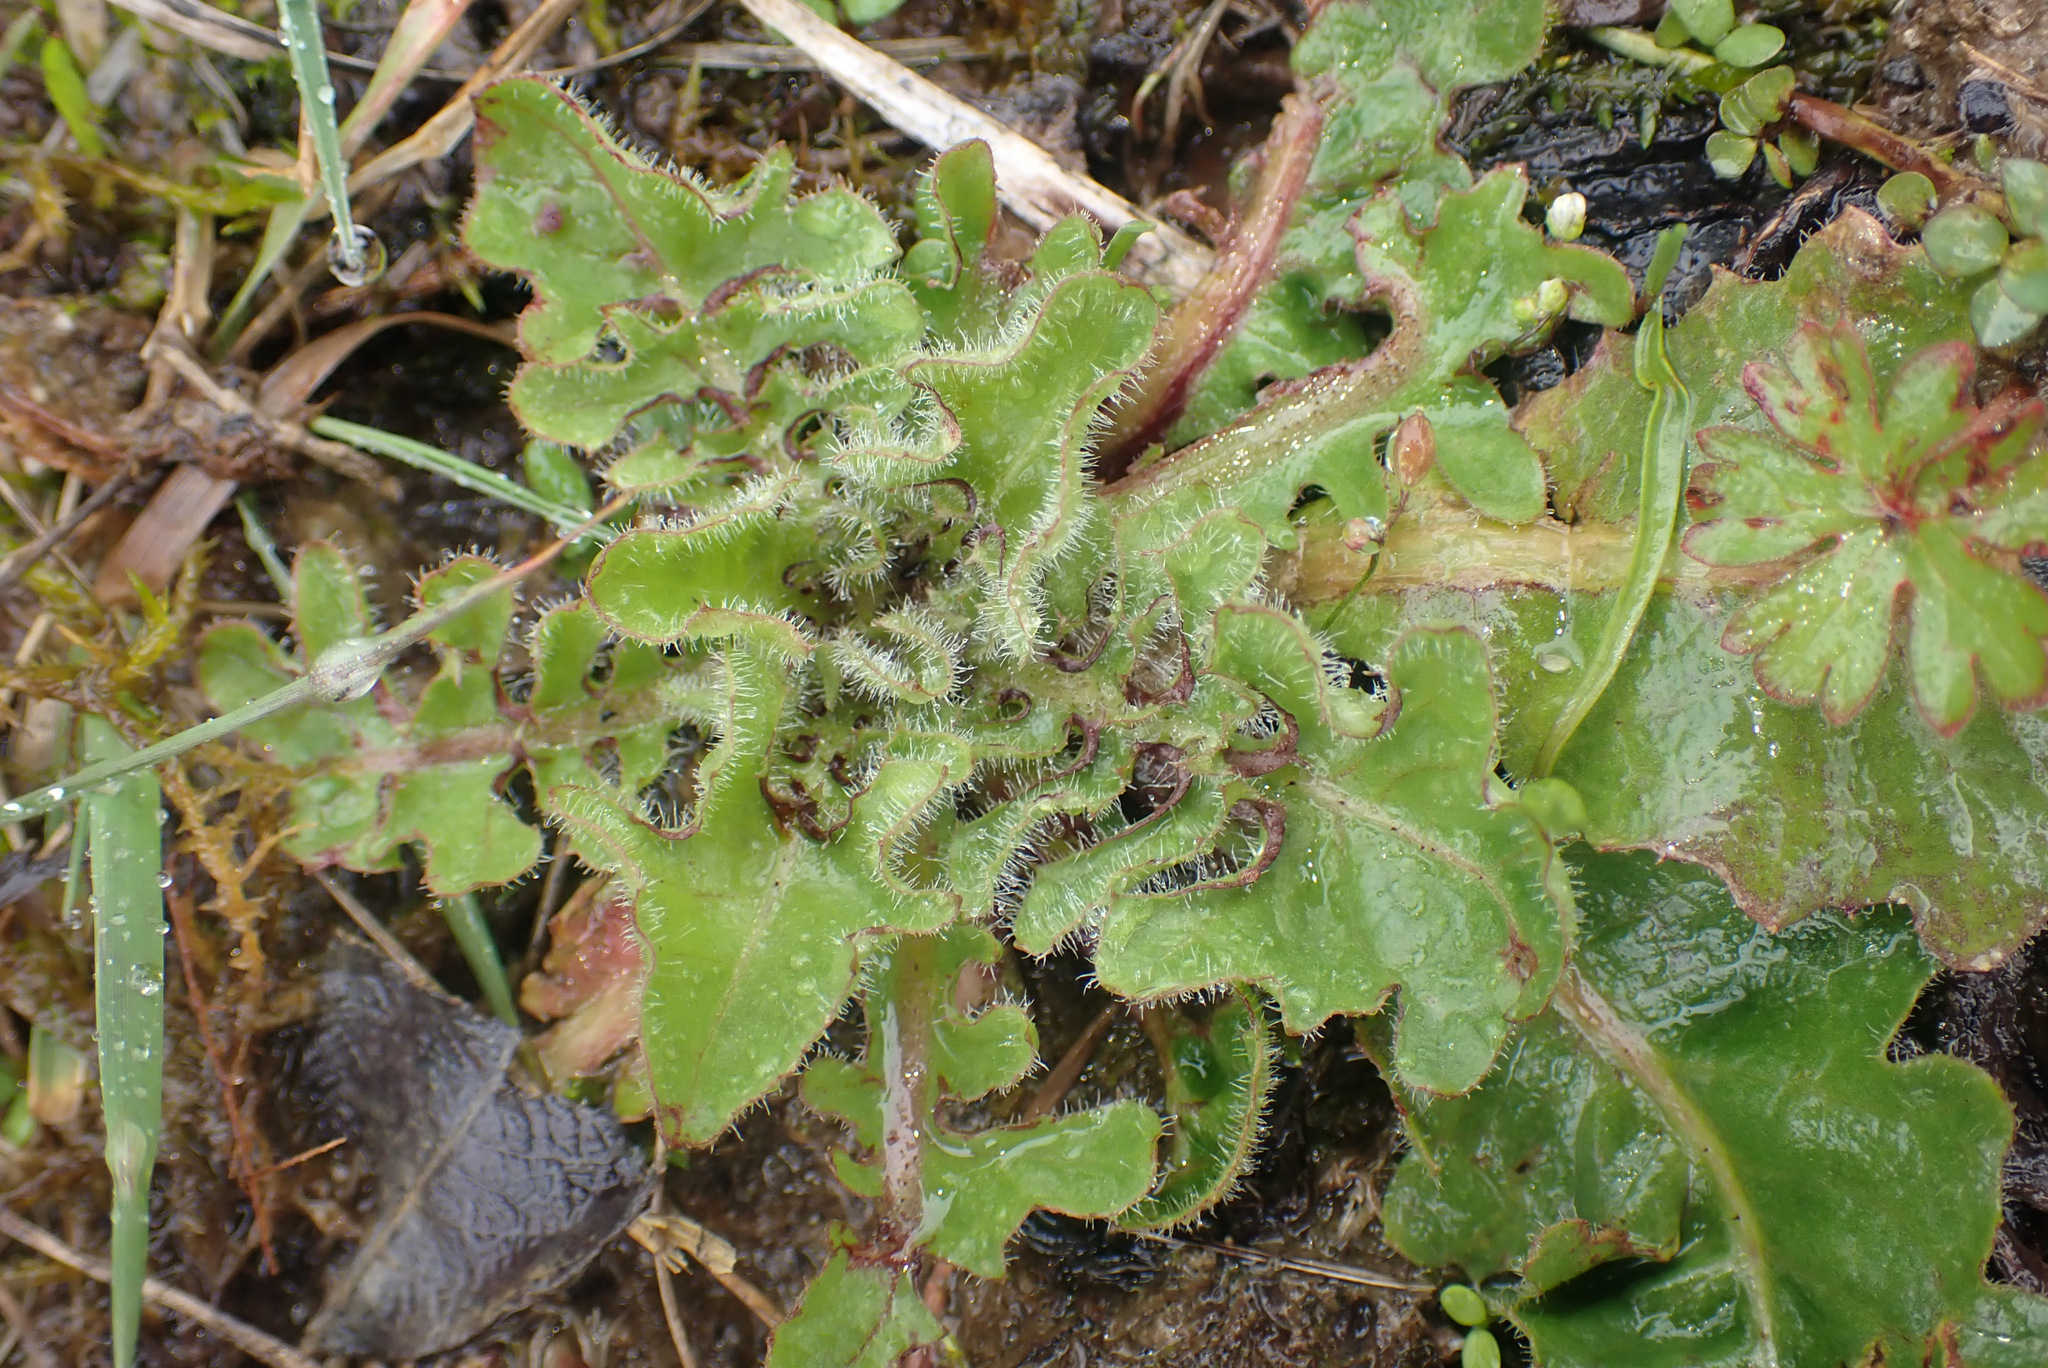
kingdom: Plantae
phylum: Tracheophyta
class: Magnoliopsida
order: Asterales
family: Asteraceae
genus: Crepis
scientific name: Crepis vesicaria
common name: Beaked hawksbeard
